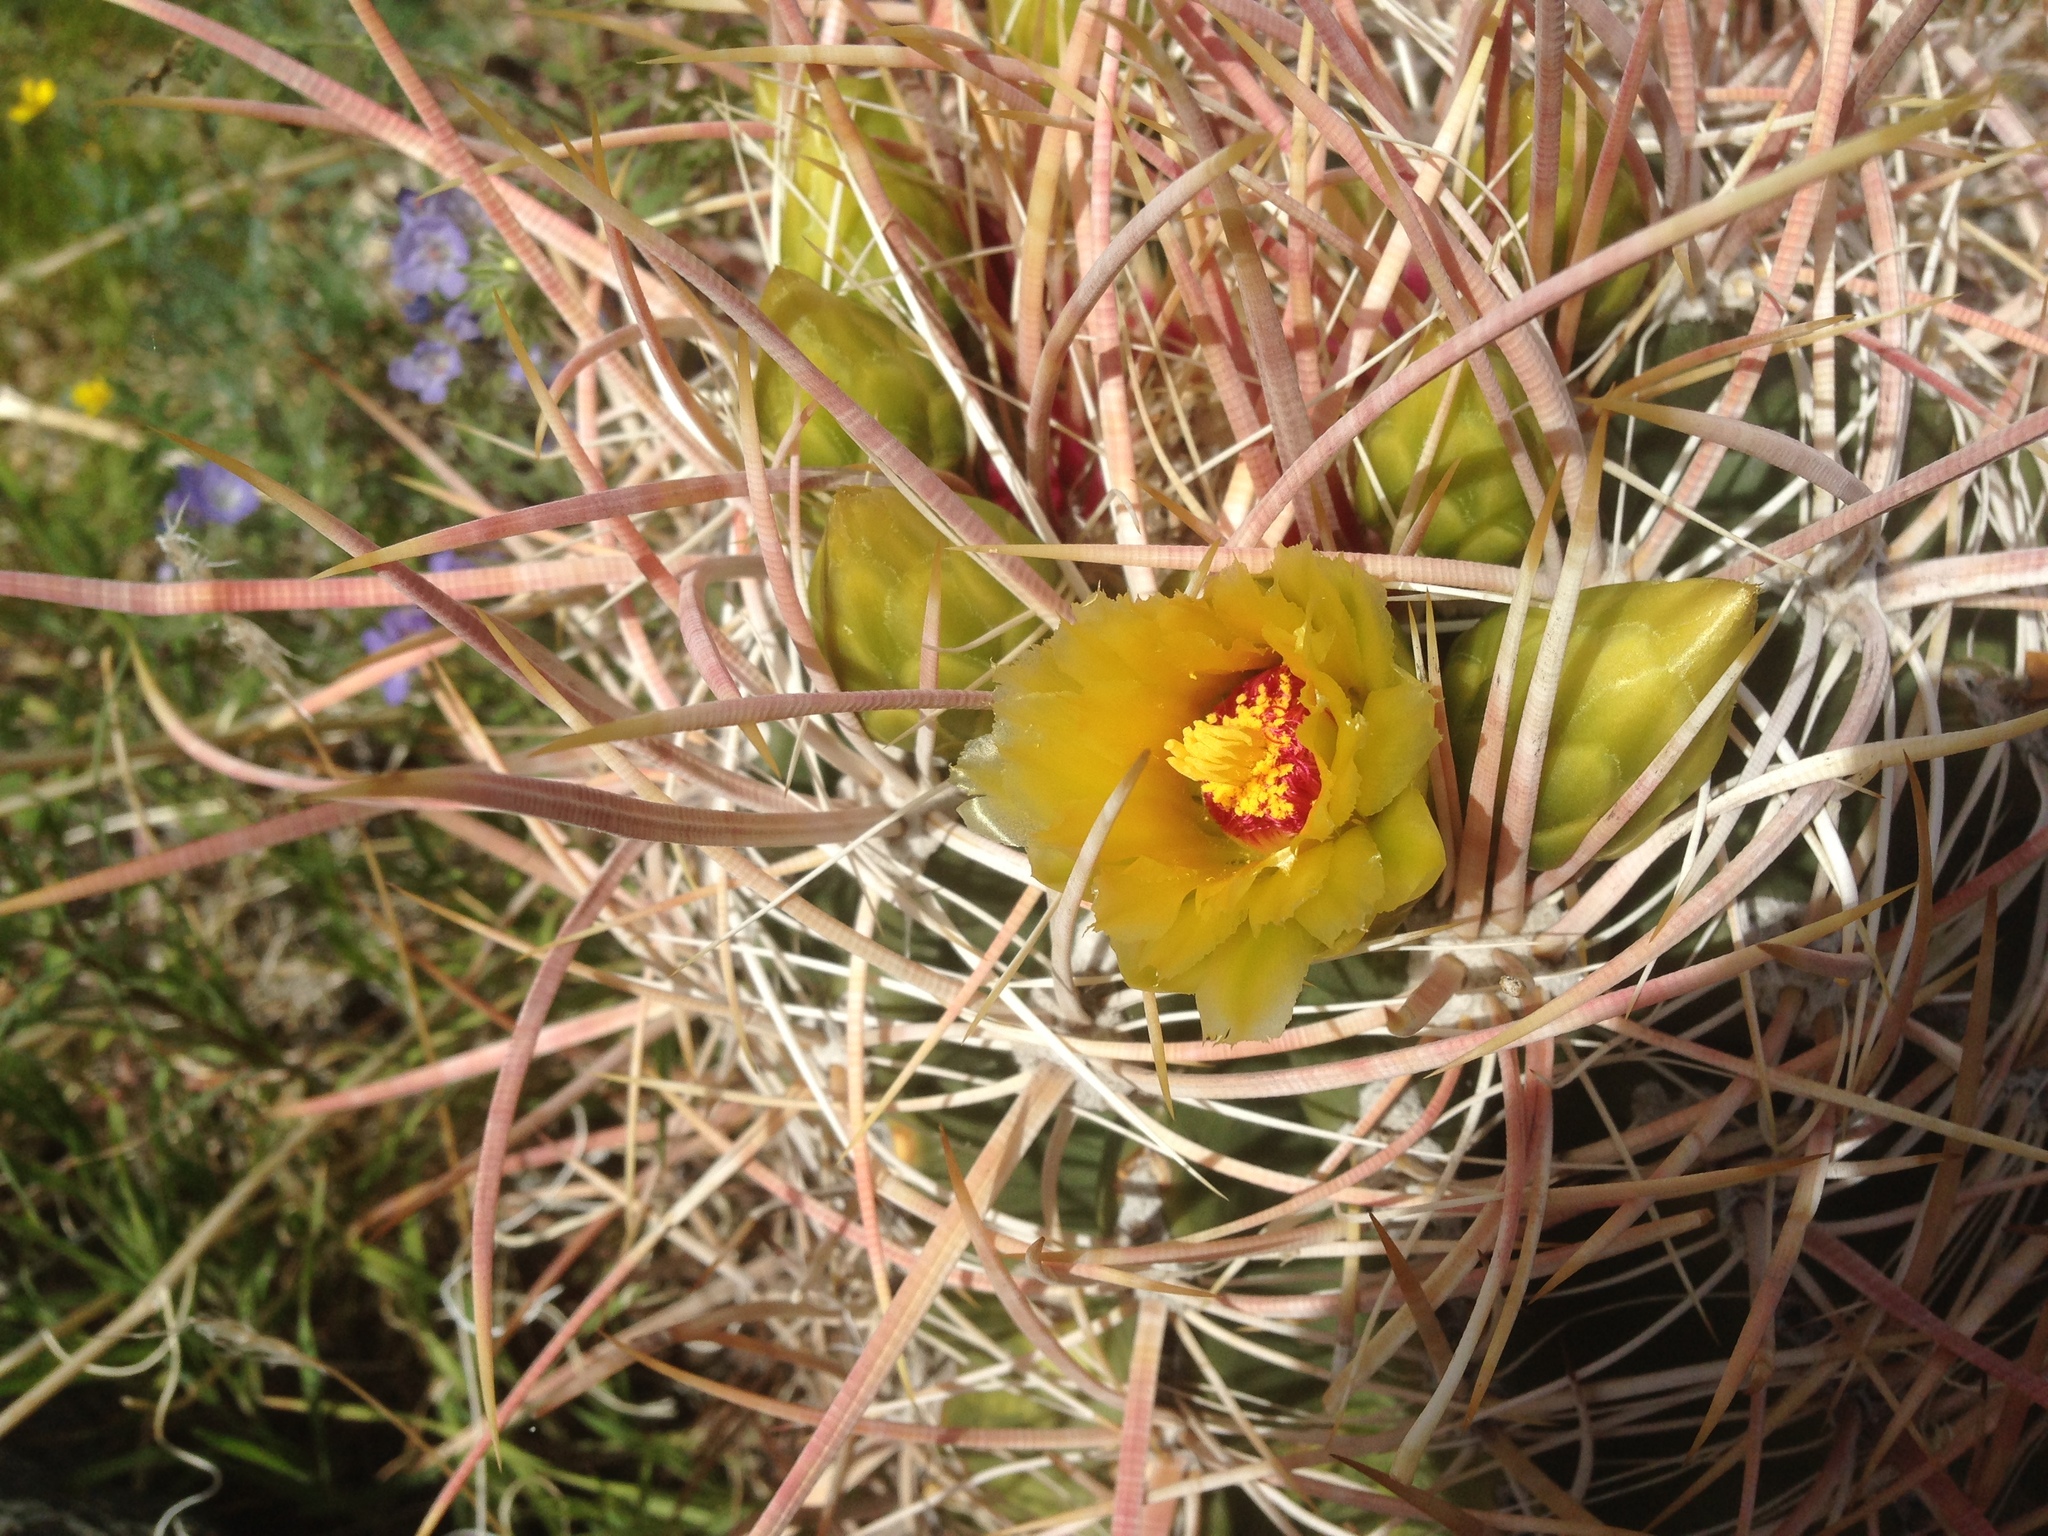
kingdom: Plantae
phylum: Tracheophyta
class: Magnoliopsida
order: Caryophyllales
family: Cactaceae
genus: Ferocactus
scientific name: Ferocactus cylindraceus
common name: California barrel cactus
